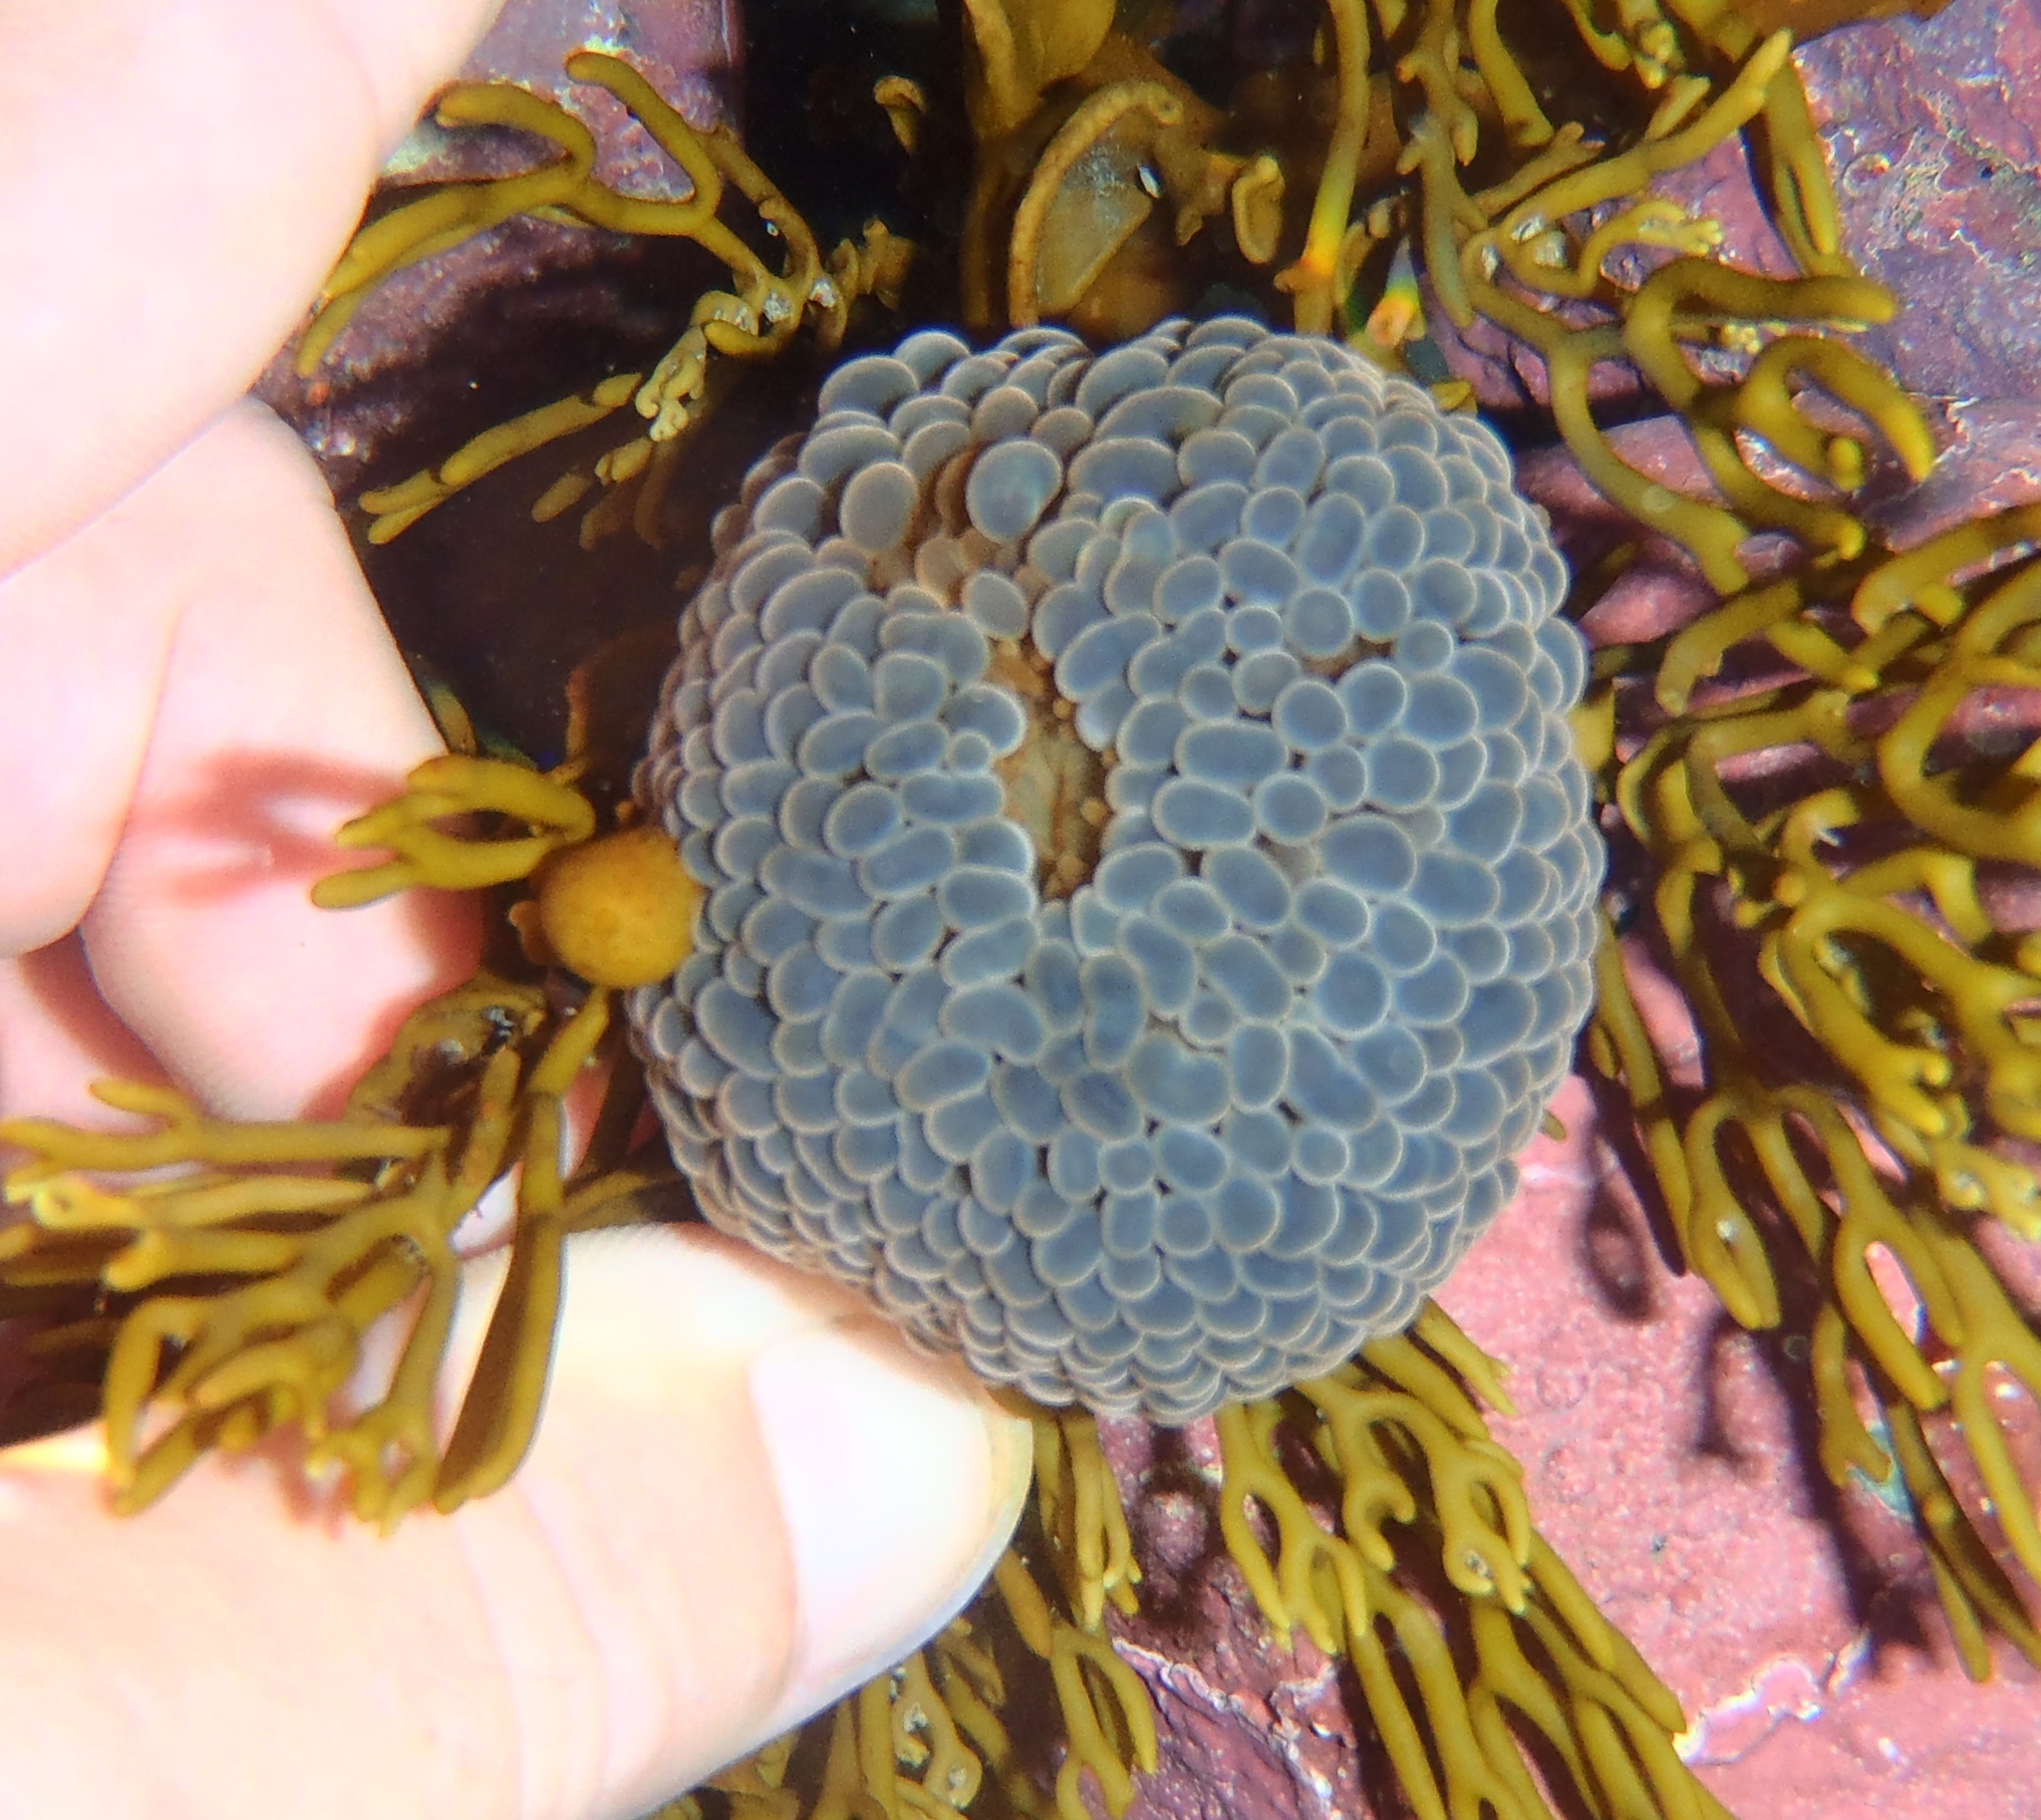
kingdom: Animalia
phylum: Cnidaria
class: Anthozoa
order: Actiniaria
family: Actiniidae
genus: Phlyctenactis
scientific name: Phlyctenactis tuberculosa
